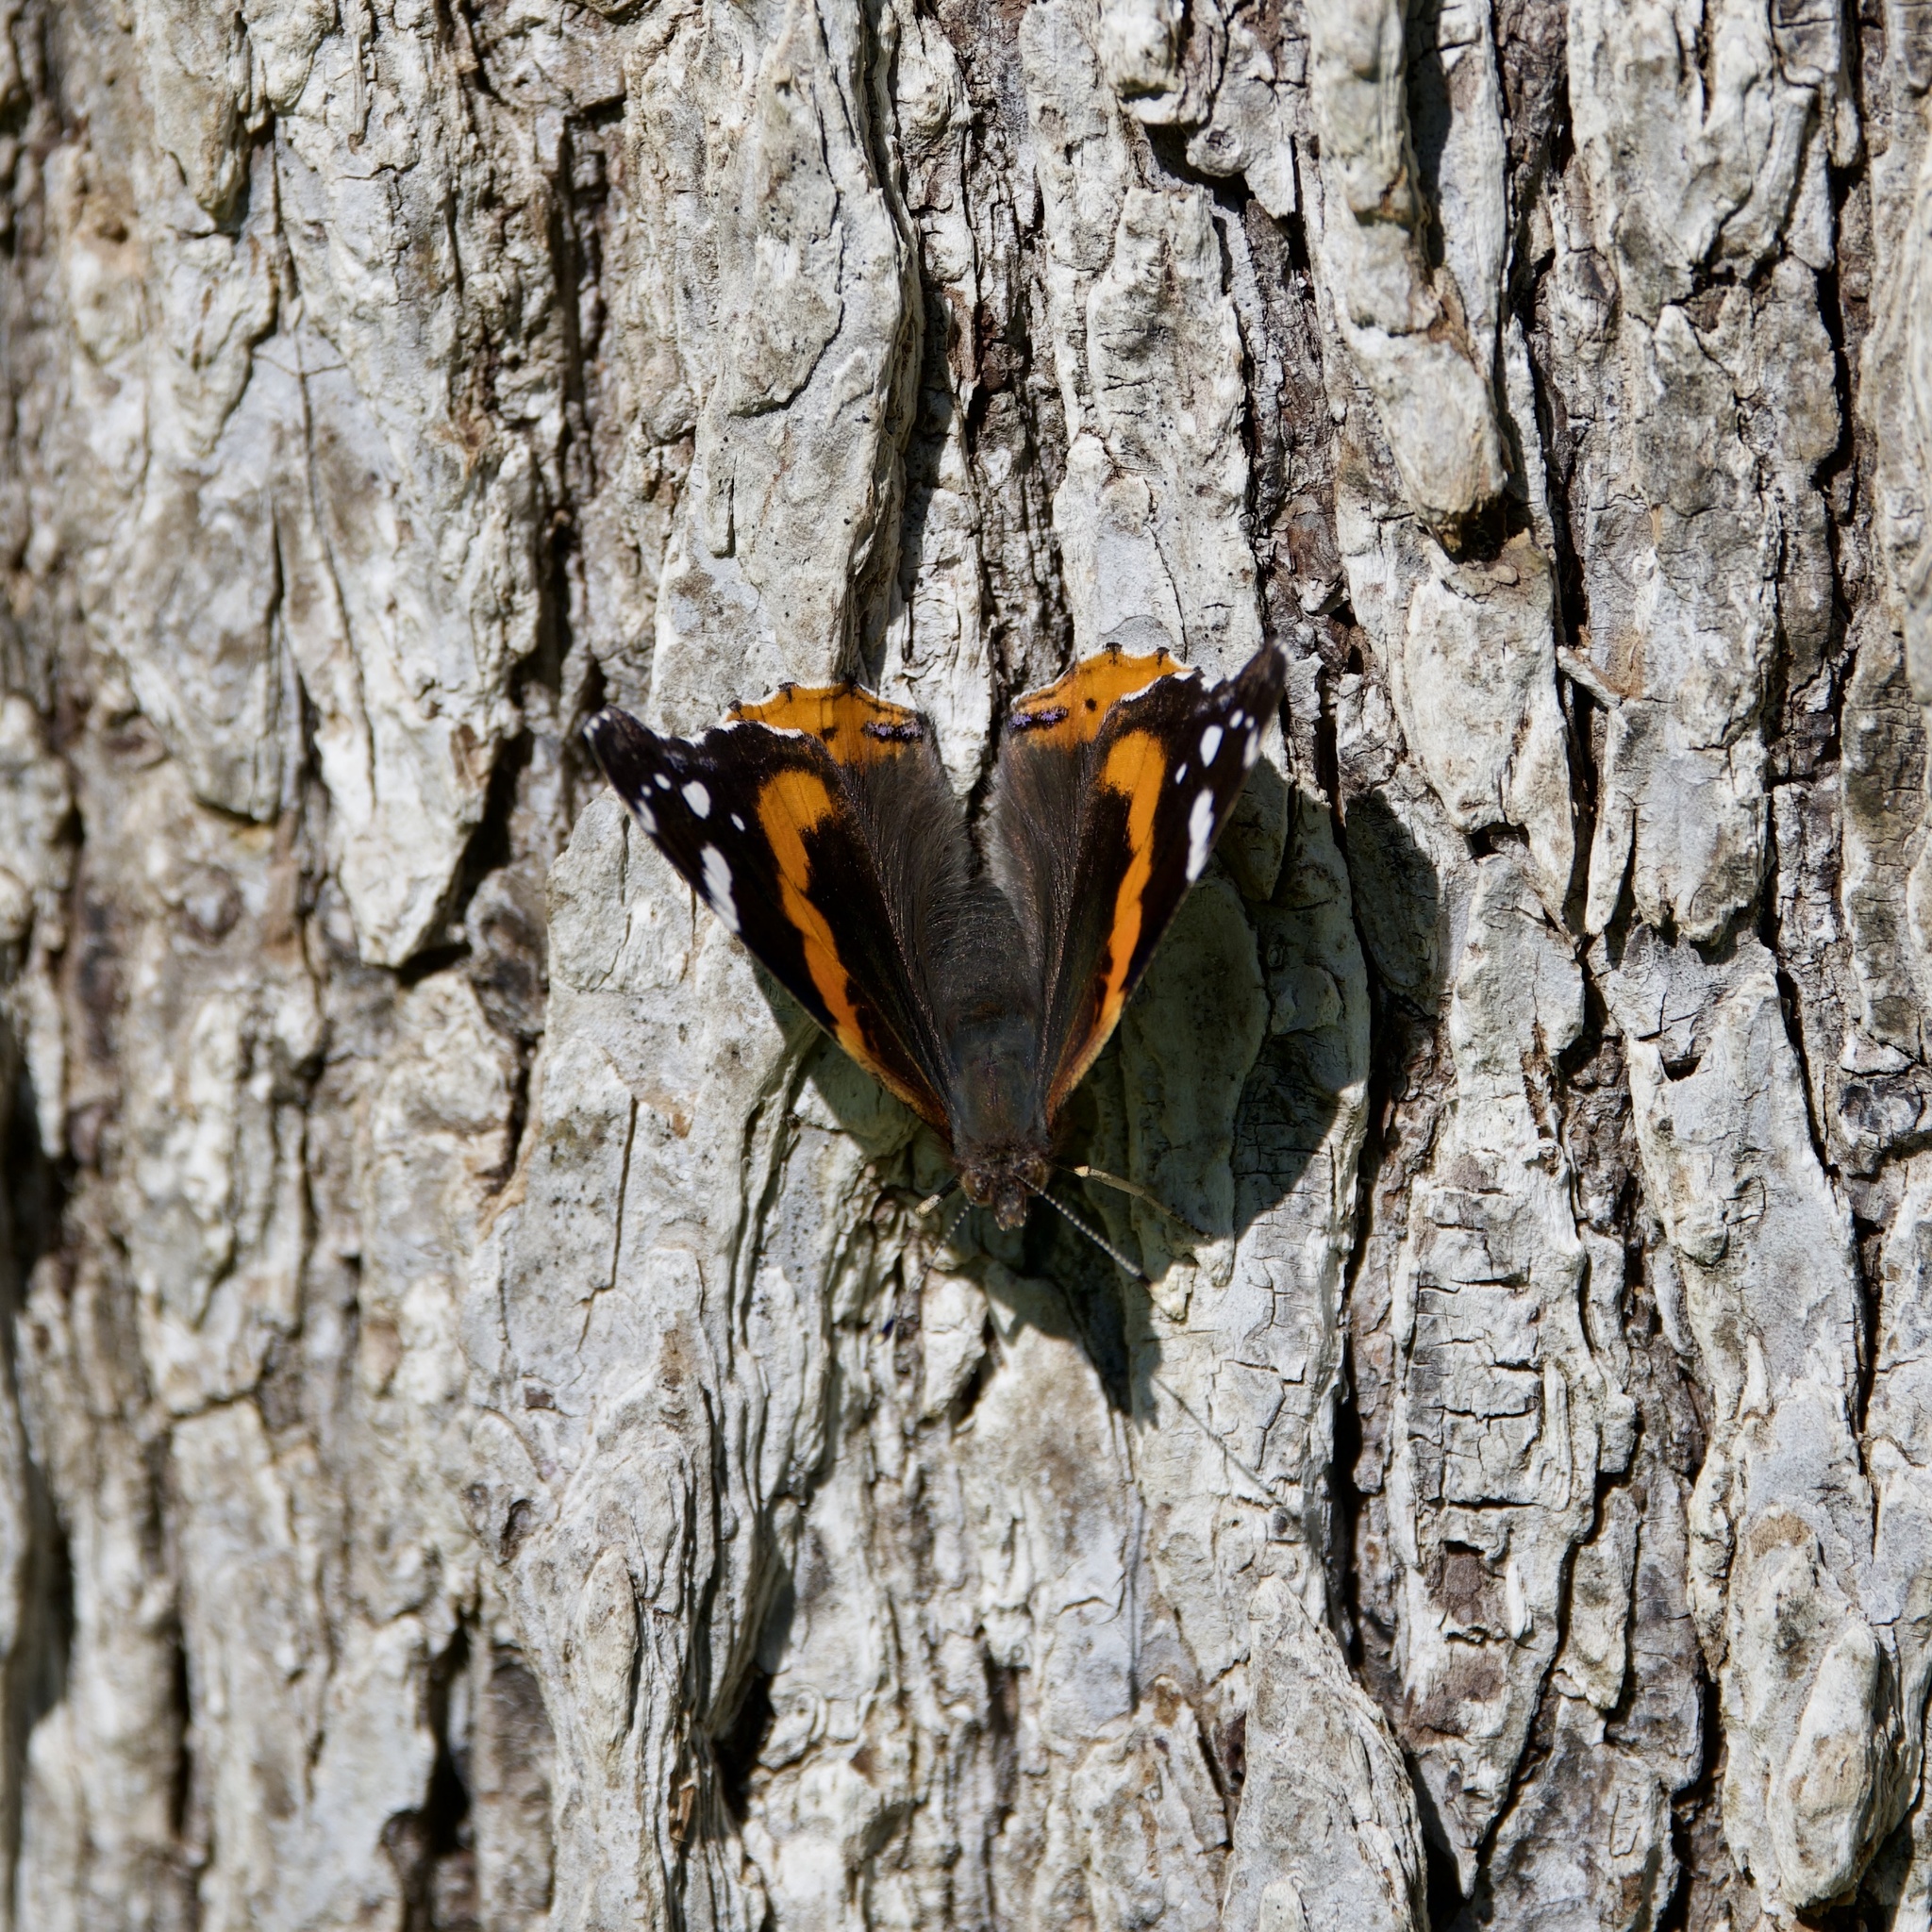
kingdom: Animalia
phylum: Arthropoda
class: Insecta
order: Lepidoptera
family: Nymphalidae
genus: Vanessa
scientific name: Vanessa atalanta
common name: Red admiral
